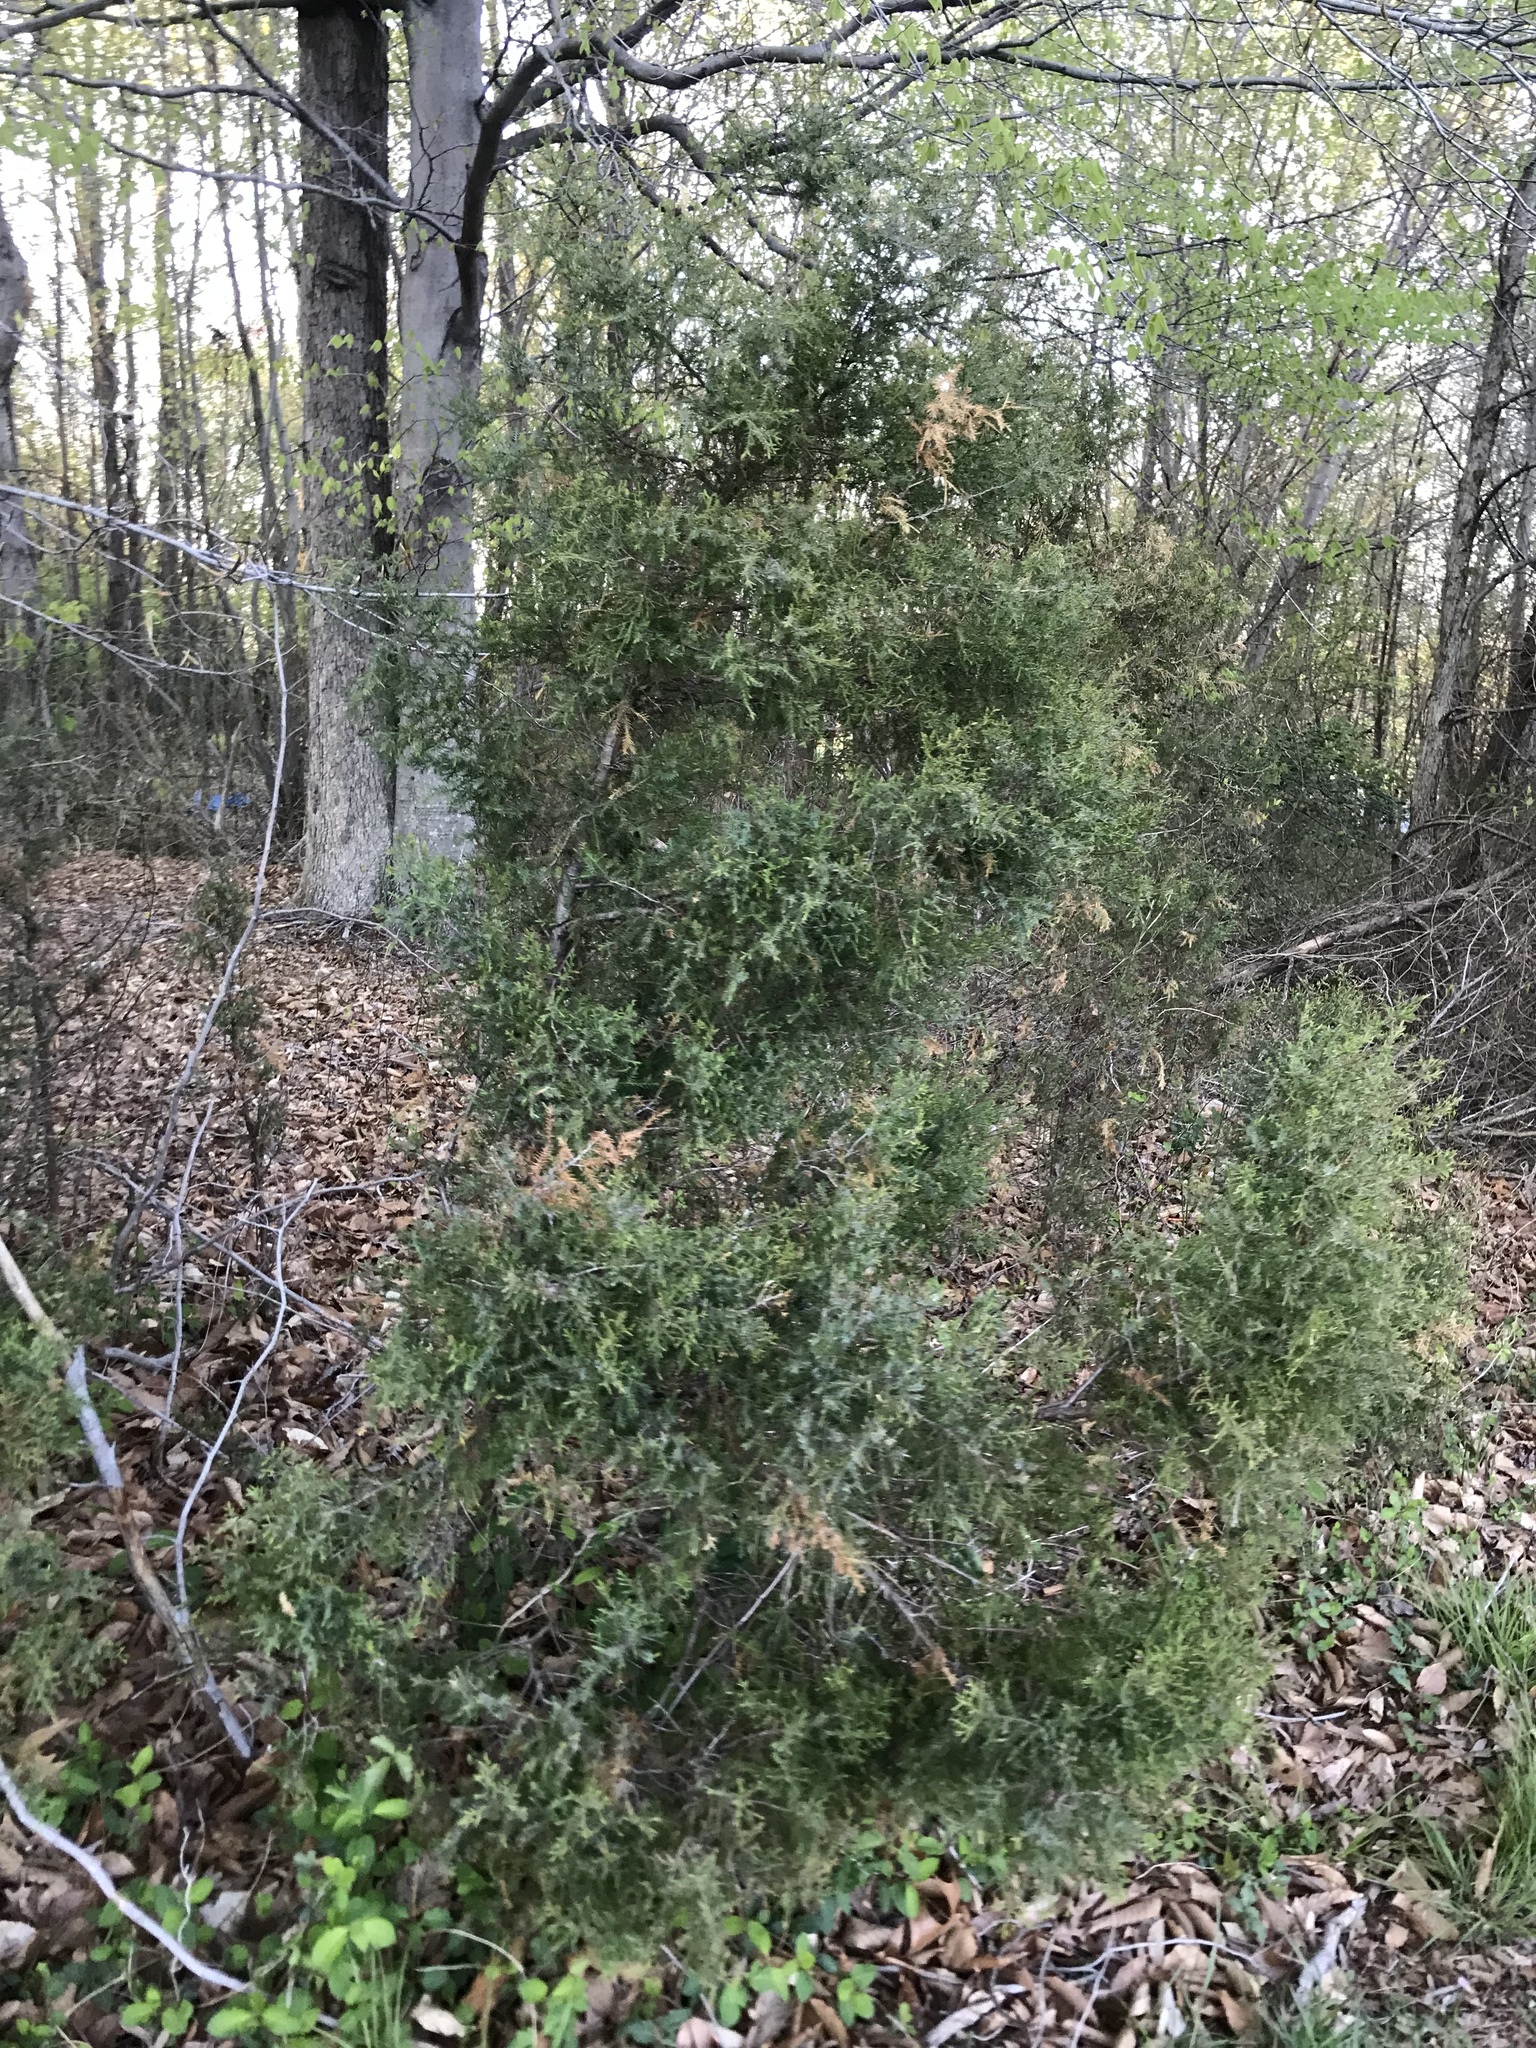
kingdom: Plantae
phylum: Tracheophyta
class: Pinopsida
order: Pinales
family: Cupressaceae
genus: Juniperus
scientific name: Juniperus virginiana
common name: Red juniper
